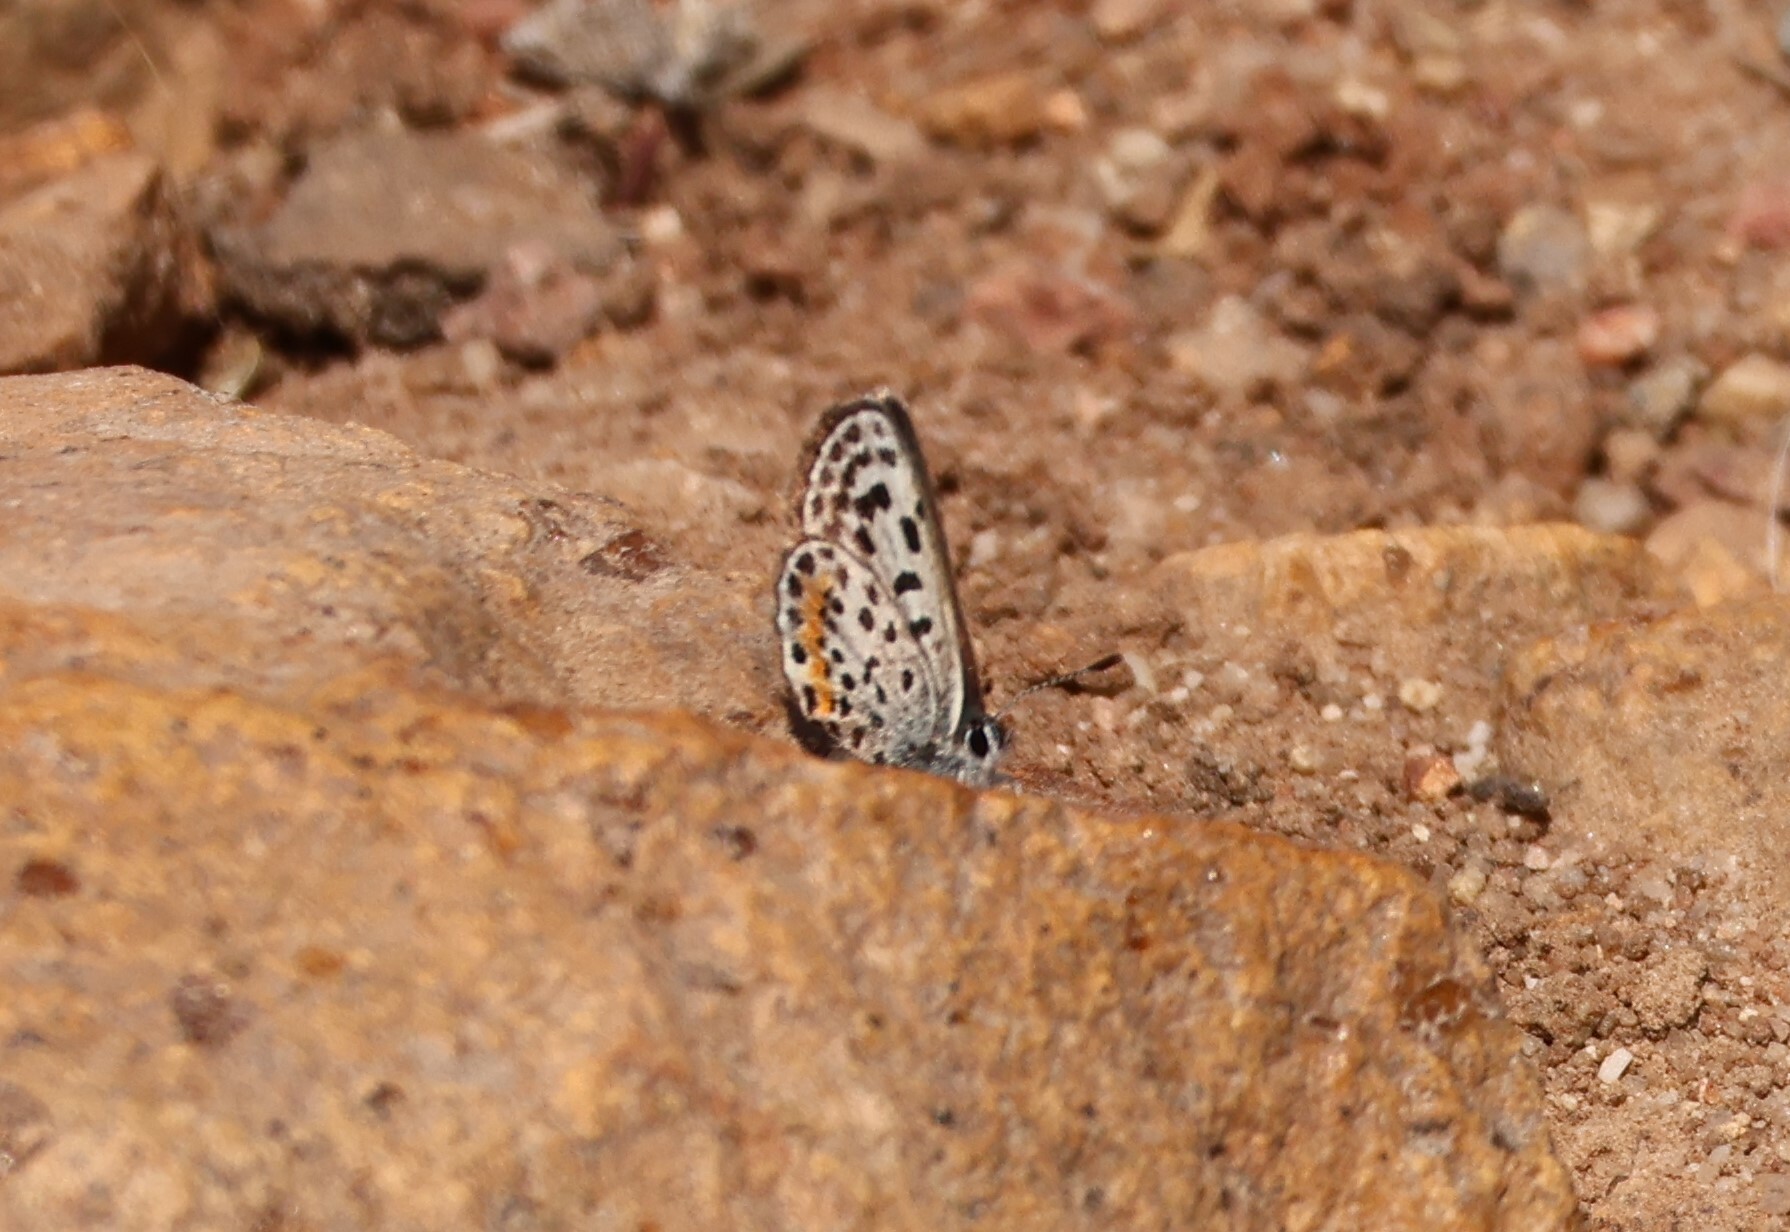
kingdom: Animalia
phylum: Arthropoda
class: Insecta
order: Lepidoptera
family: Lycaenidae
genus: Philotes
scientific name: Philotes bernardino
